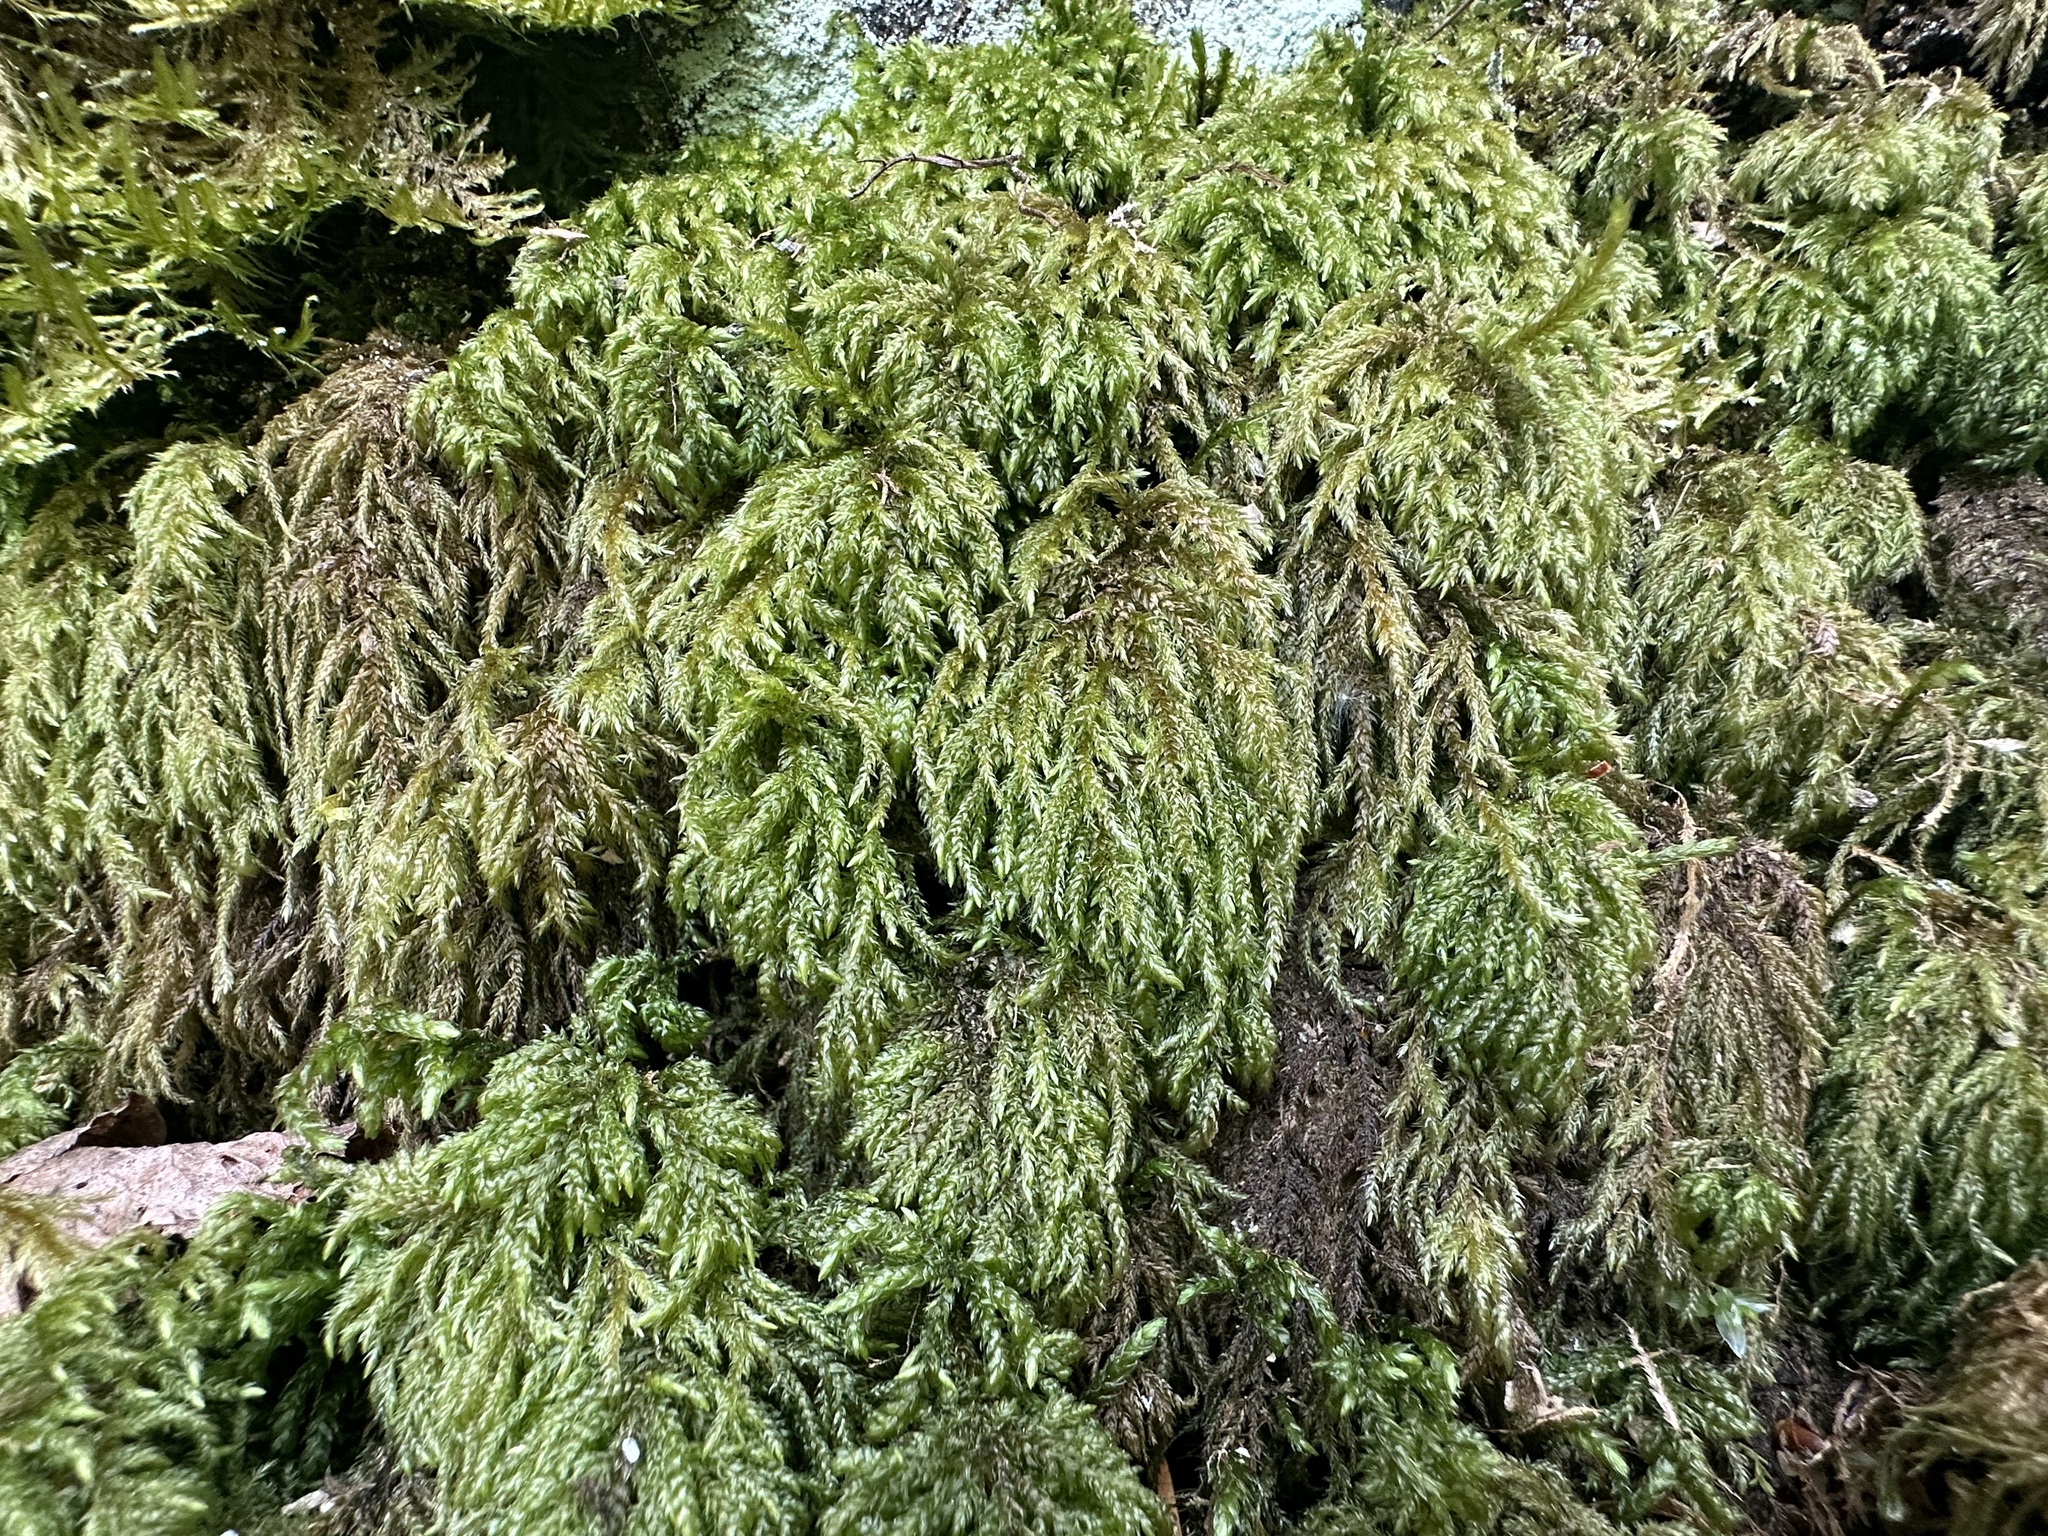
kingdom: Plantae
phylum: Bryophyta
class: Bryopsida
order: Hypnales
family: Neckeraceae
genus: Thamnobryum
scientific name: Thamnobryum alopecurum
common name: Fox-tail feather-moss
